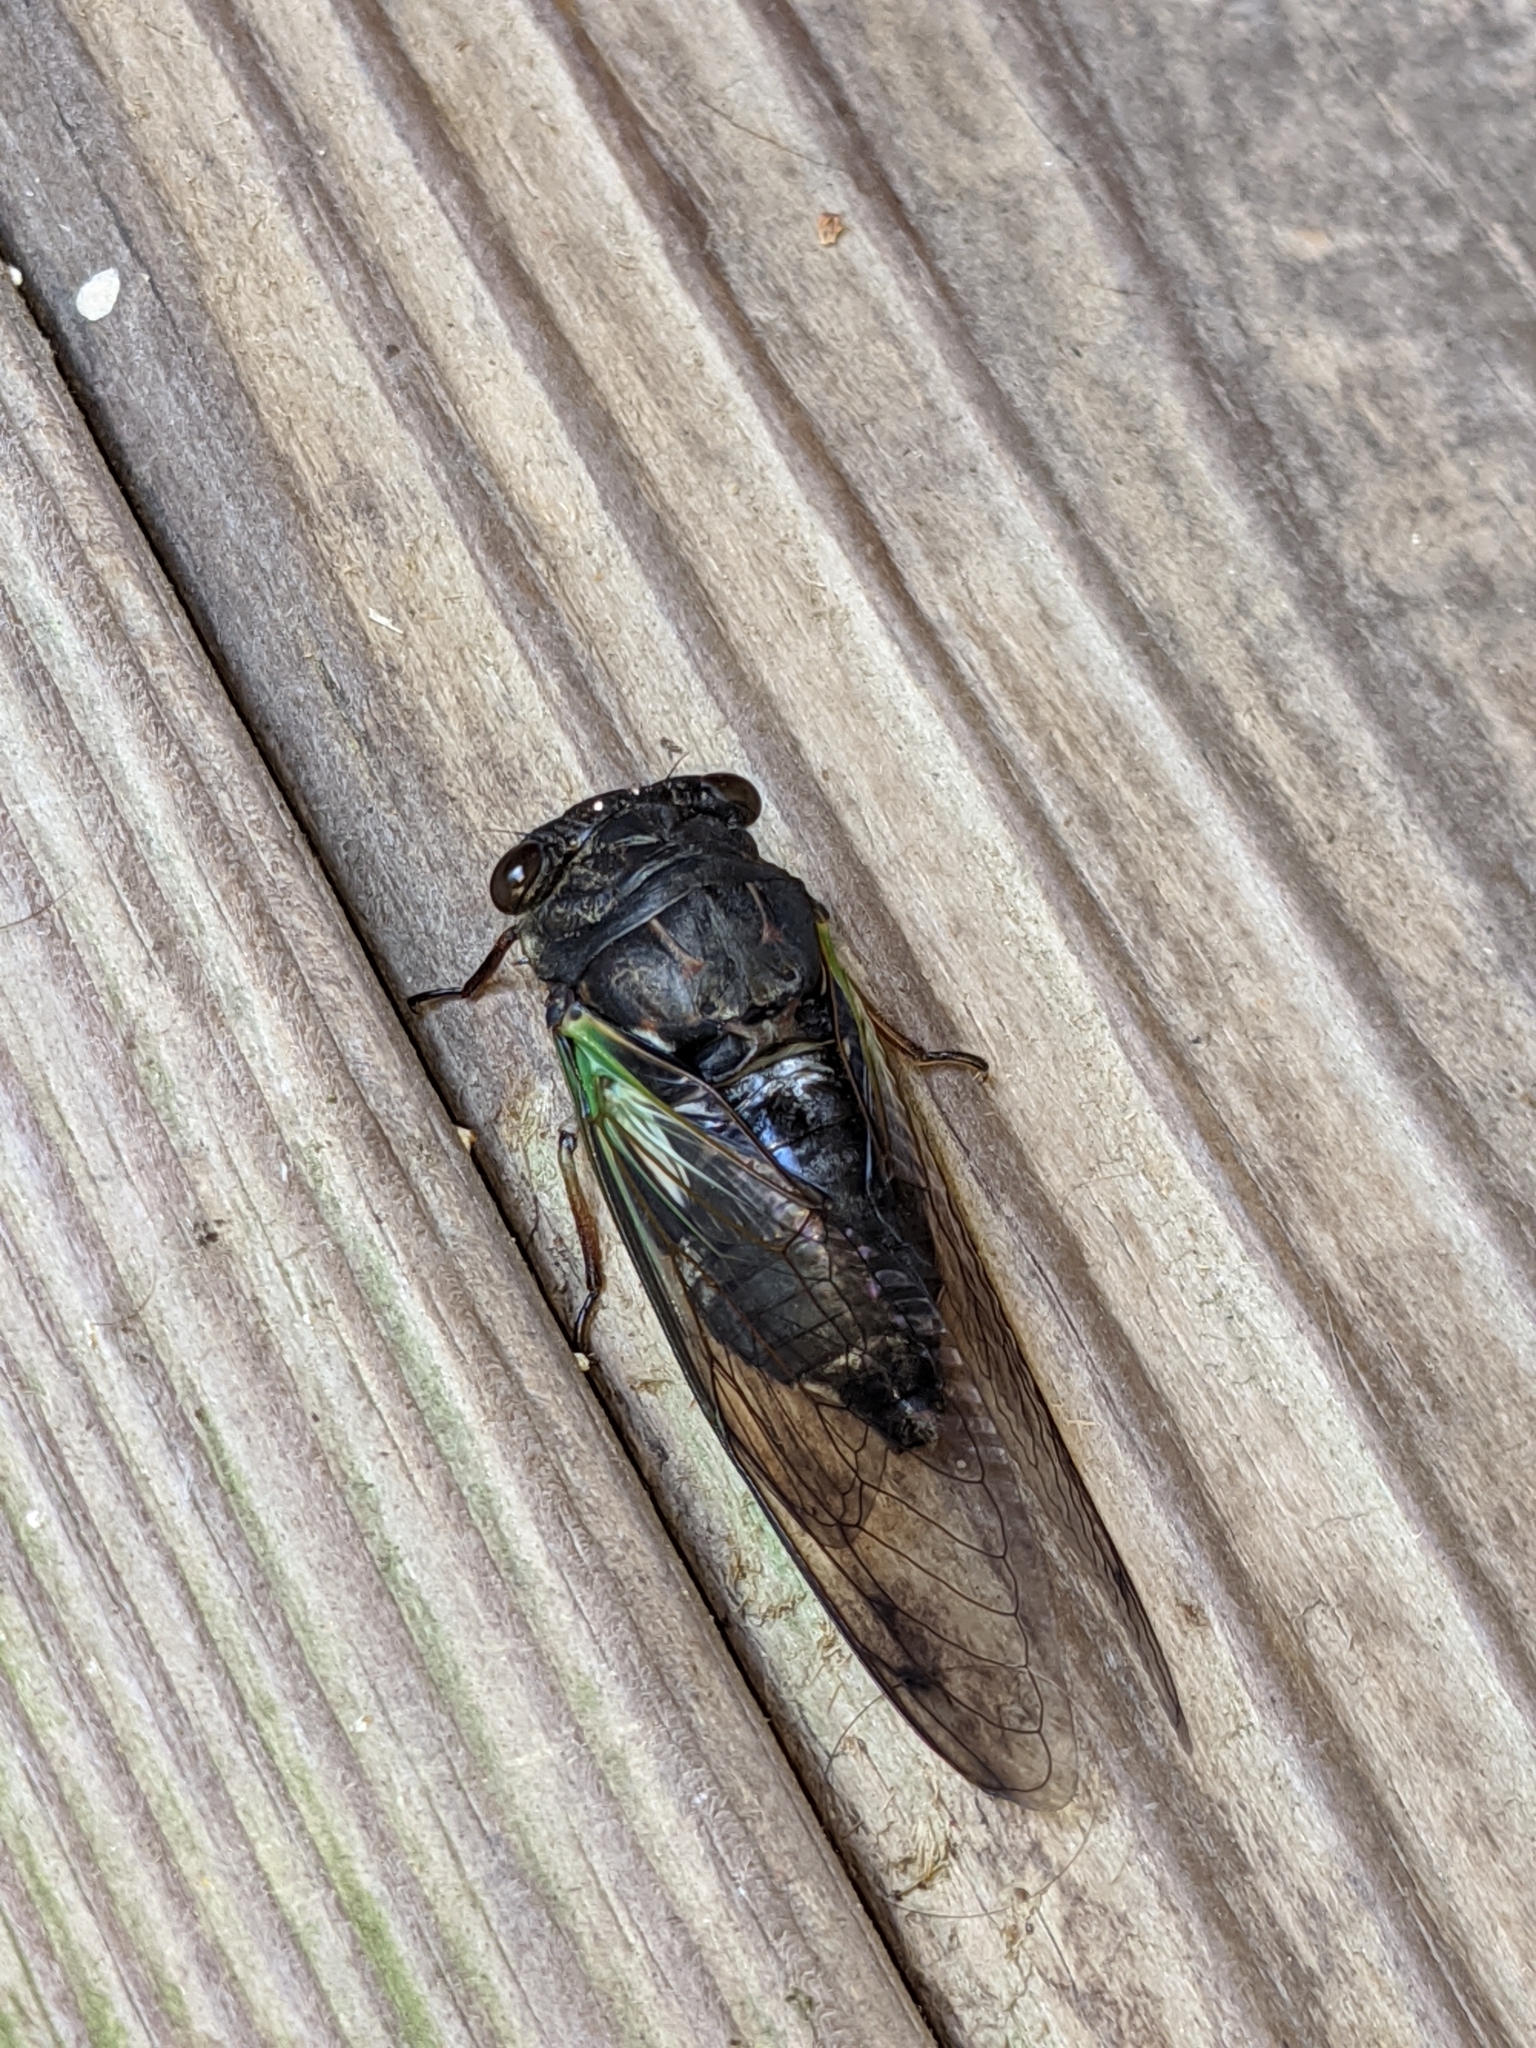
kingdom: Animalia
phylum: Arthropoda
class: Insecta
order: Hemiptera
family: Cicadidae
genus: Neotibicen
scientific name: Neotibicen lyricen
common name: Lyric cicada
